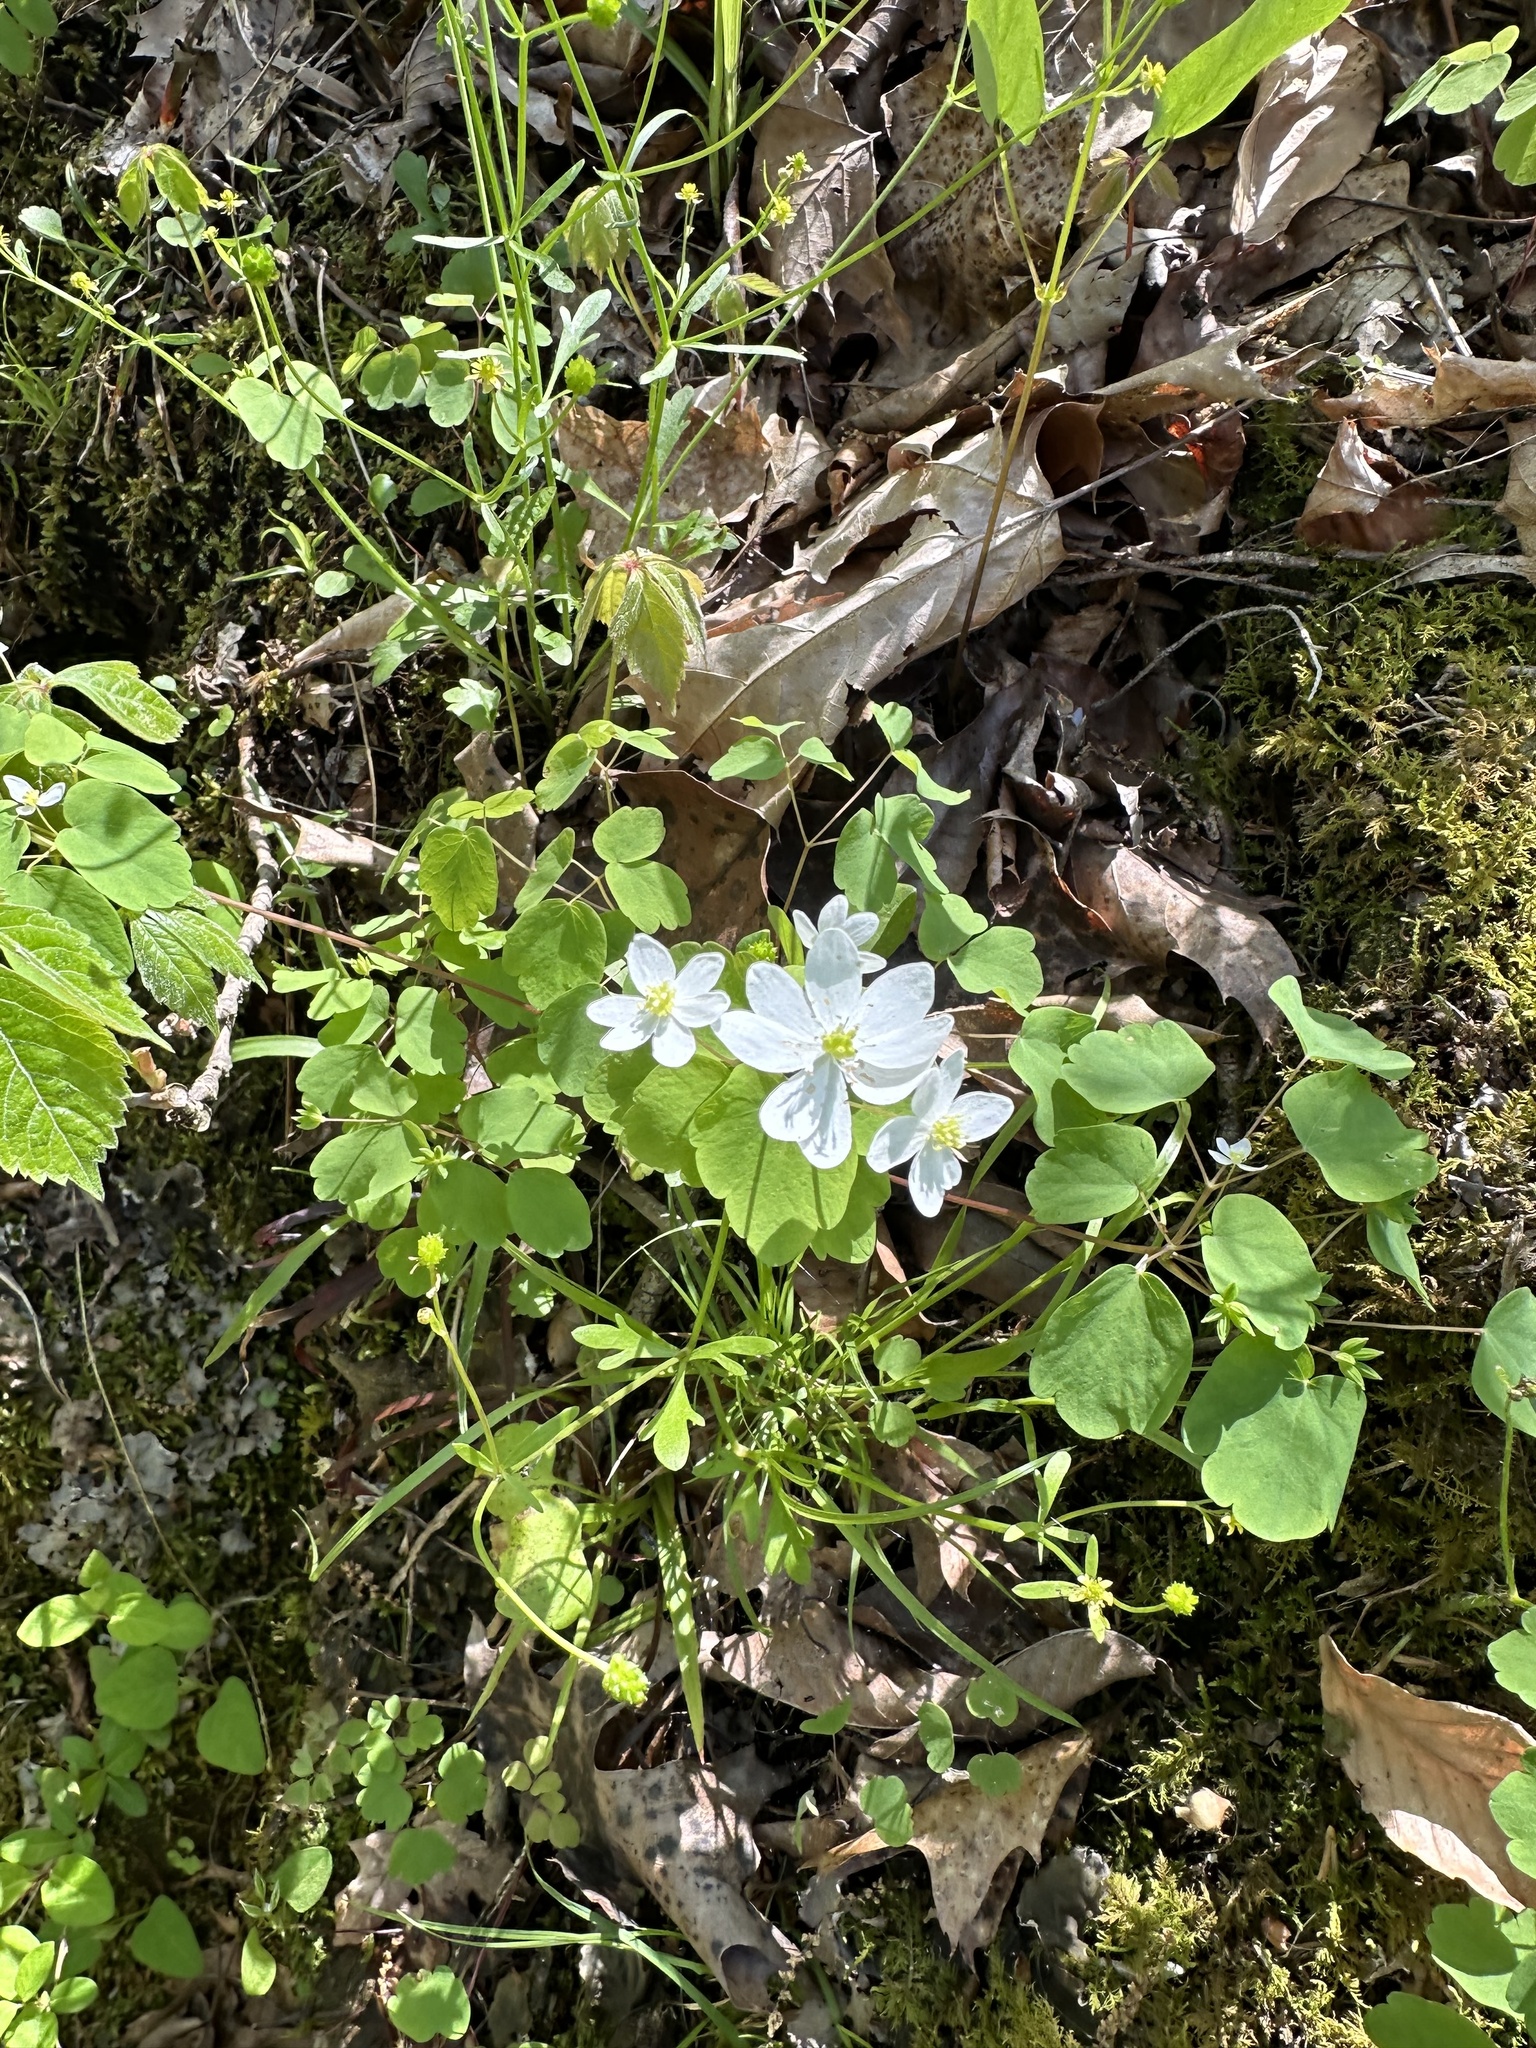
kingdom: Plantae
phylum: Tracheophyta
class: Magnoliopsida
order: Ranunculales
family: Ranunculaceae
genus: Thalictrum
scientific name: Thalictrum thalictroides
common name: Rue-anemone
